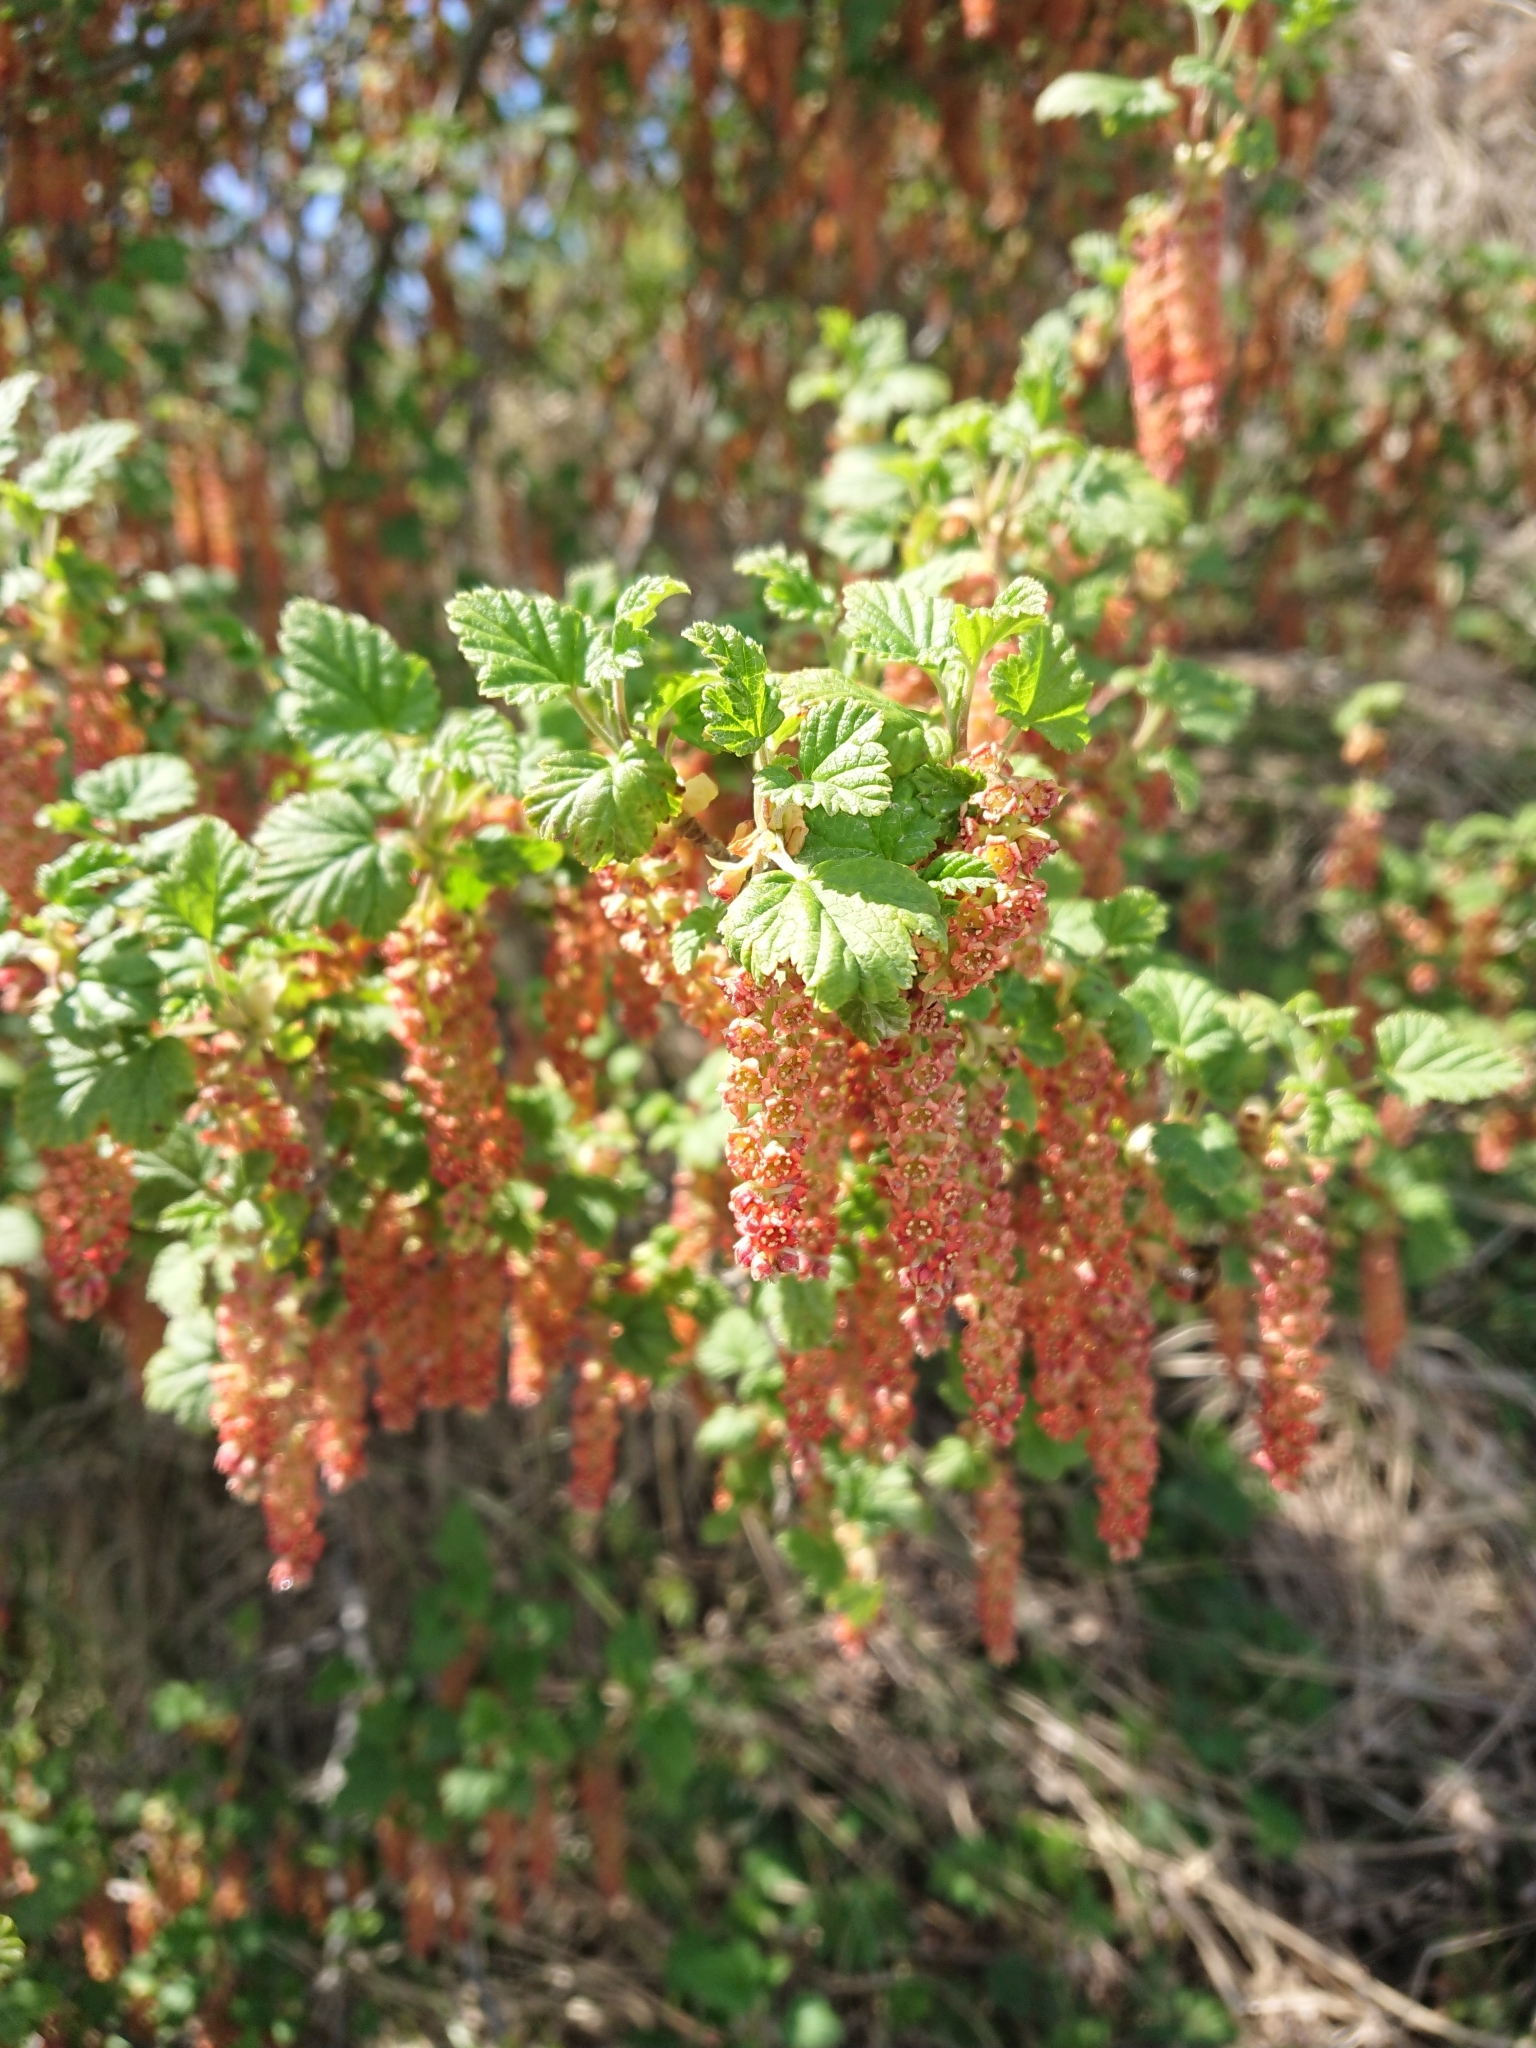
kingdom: Plantae
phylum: Tracheophyta
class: Magnoliopsida
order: Saxifragales
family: Grossulariaceae
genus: Ribes
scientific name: Ribes magellanicum
